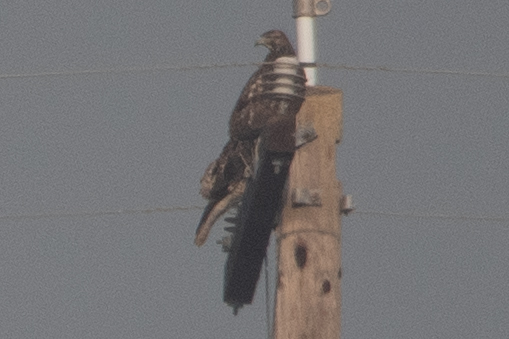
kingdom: Animalia
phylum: Chordata
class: Aves
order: Accipitriformes
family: Accipitridae
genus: Buteo
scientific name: Buteo jamaicensis
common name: Red-tailed hawk
